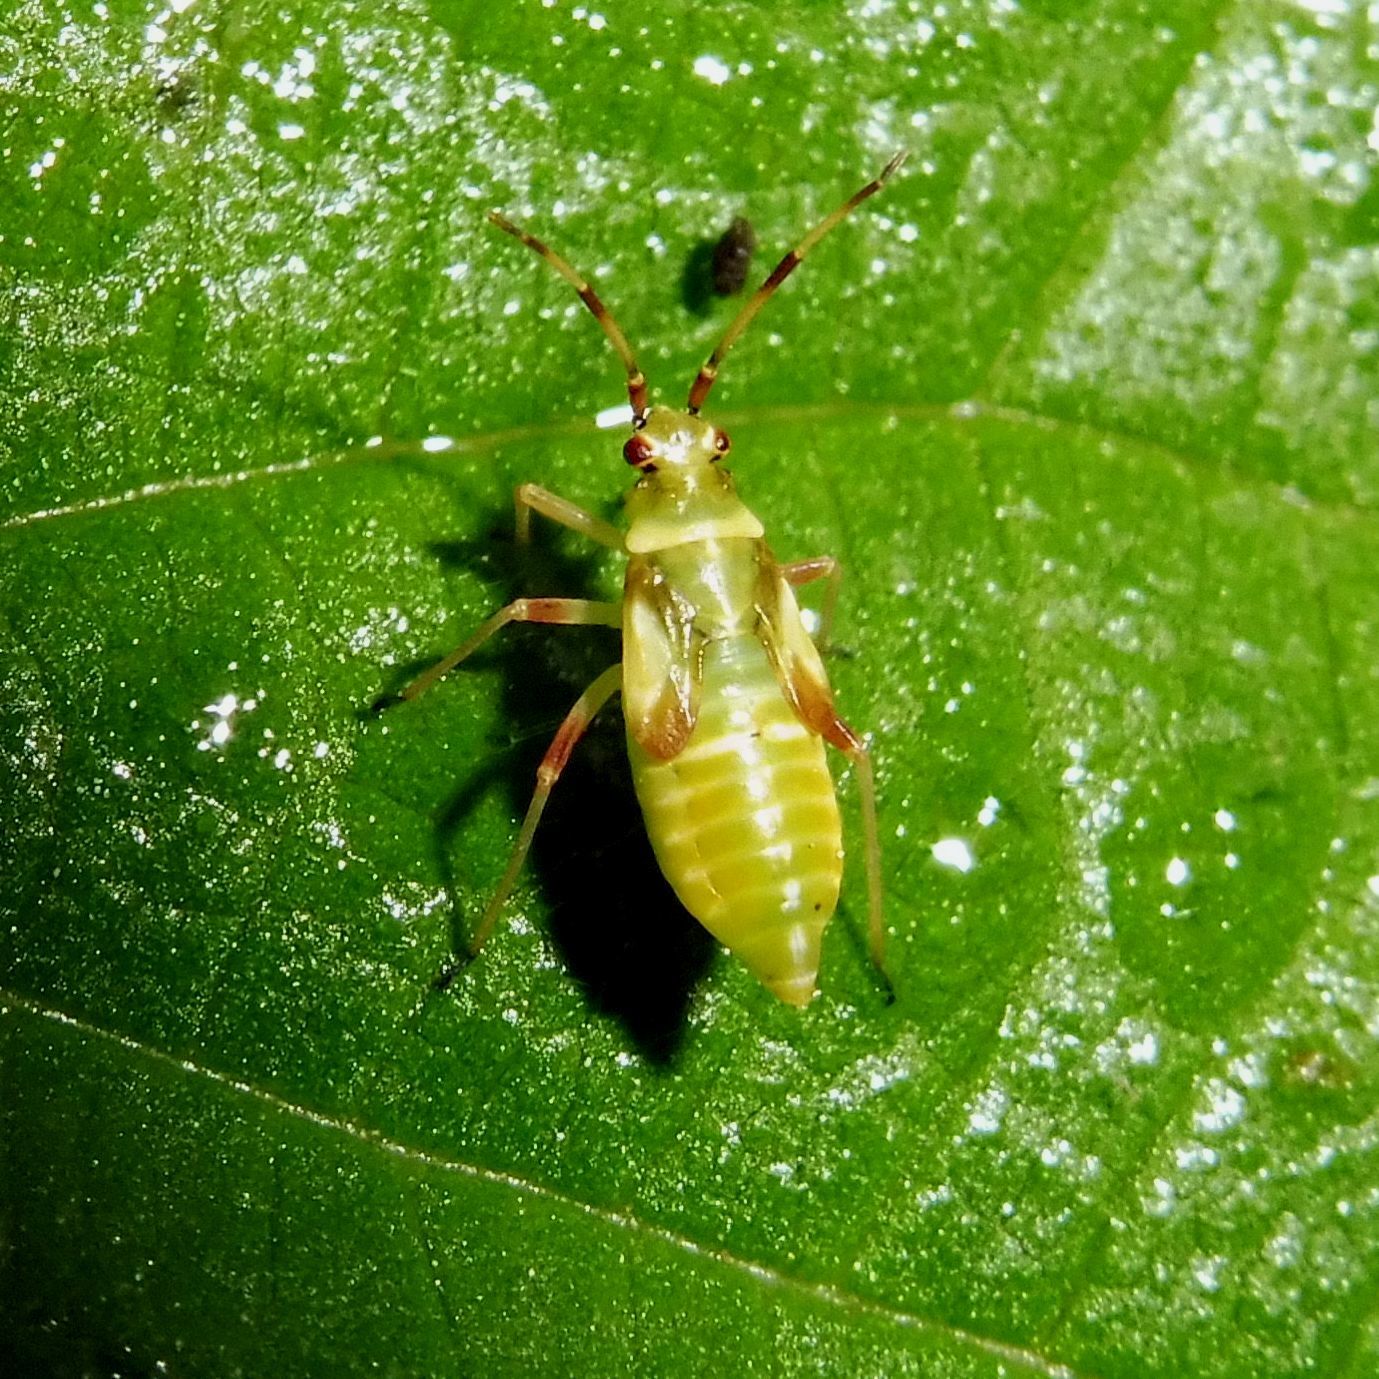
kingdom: Animalia
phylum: Arthropoda
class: Insecta
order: Hemiptera
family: Miridae
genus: Dryophilocoris
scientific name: Dryophilocoris flavoquadrimaculatus
